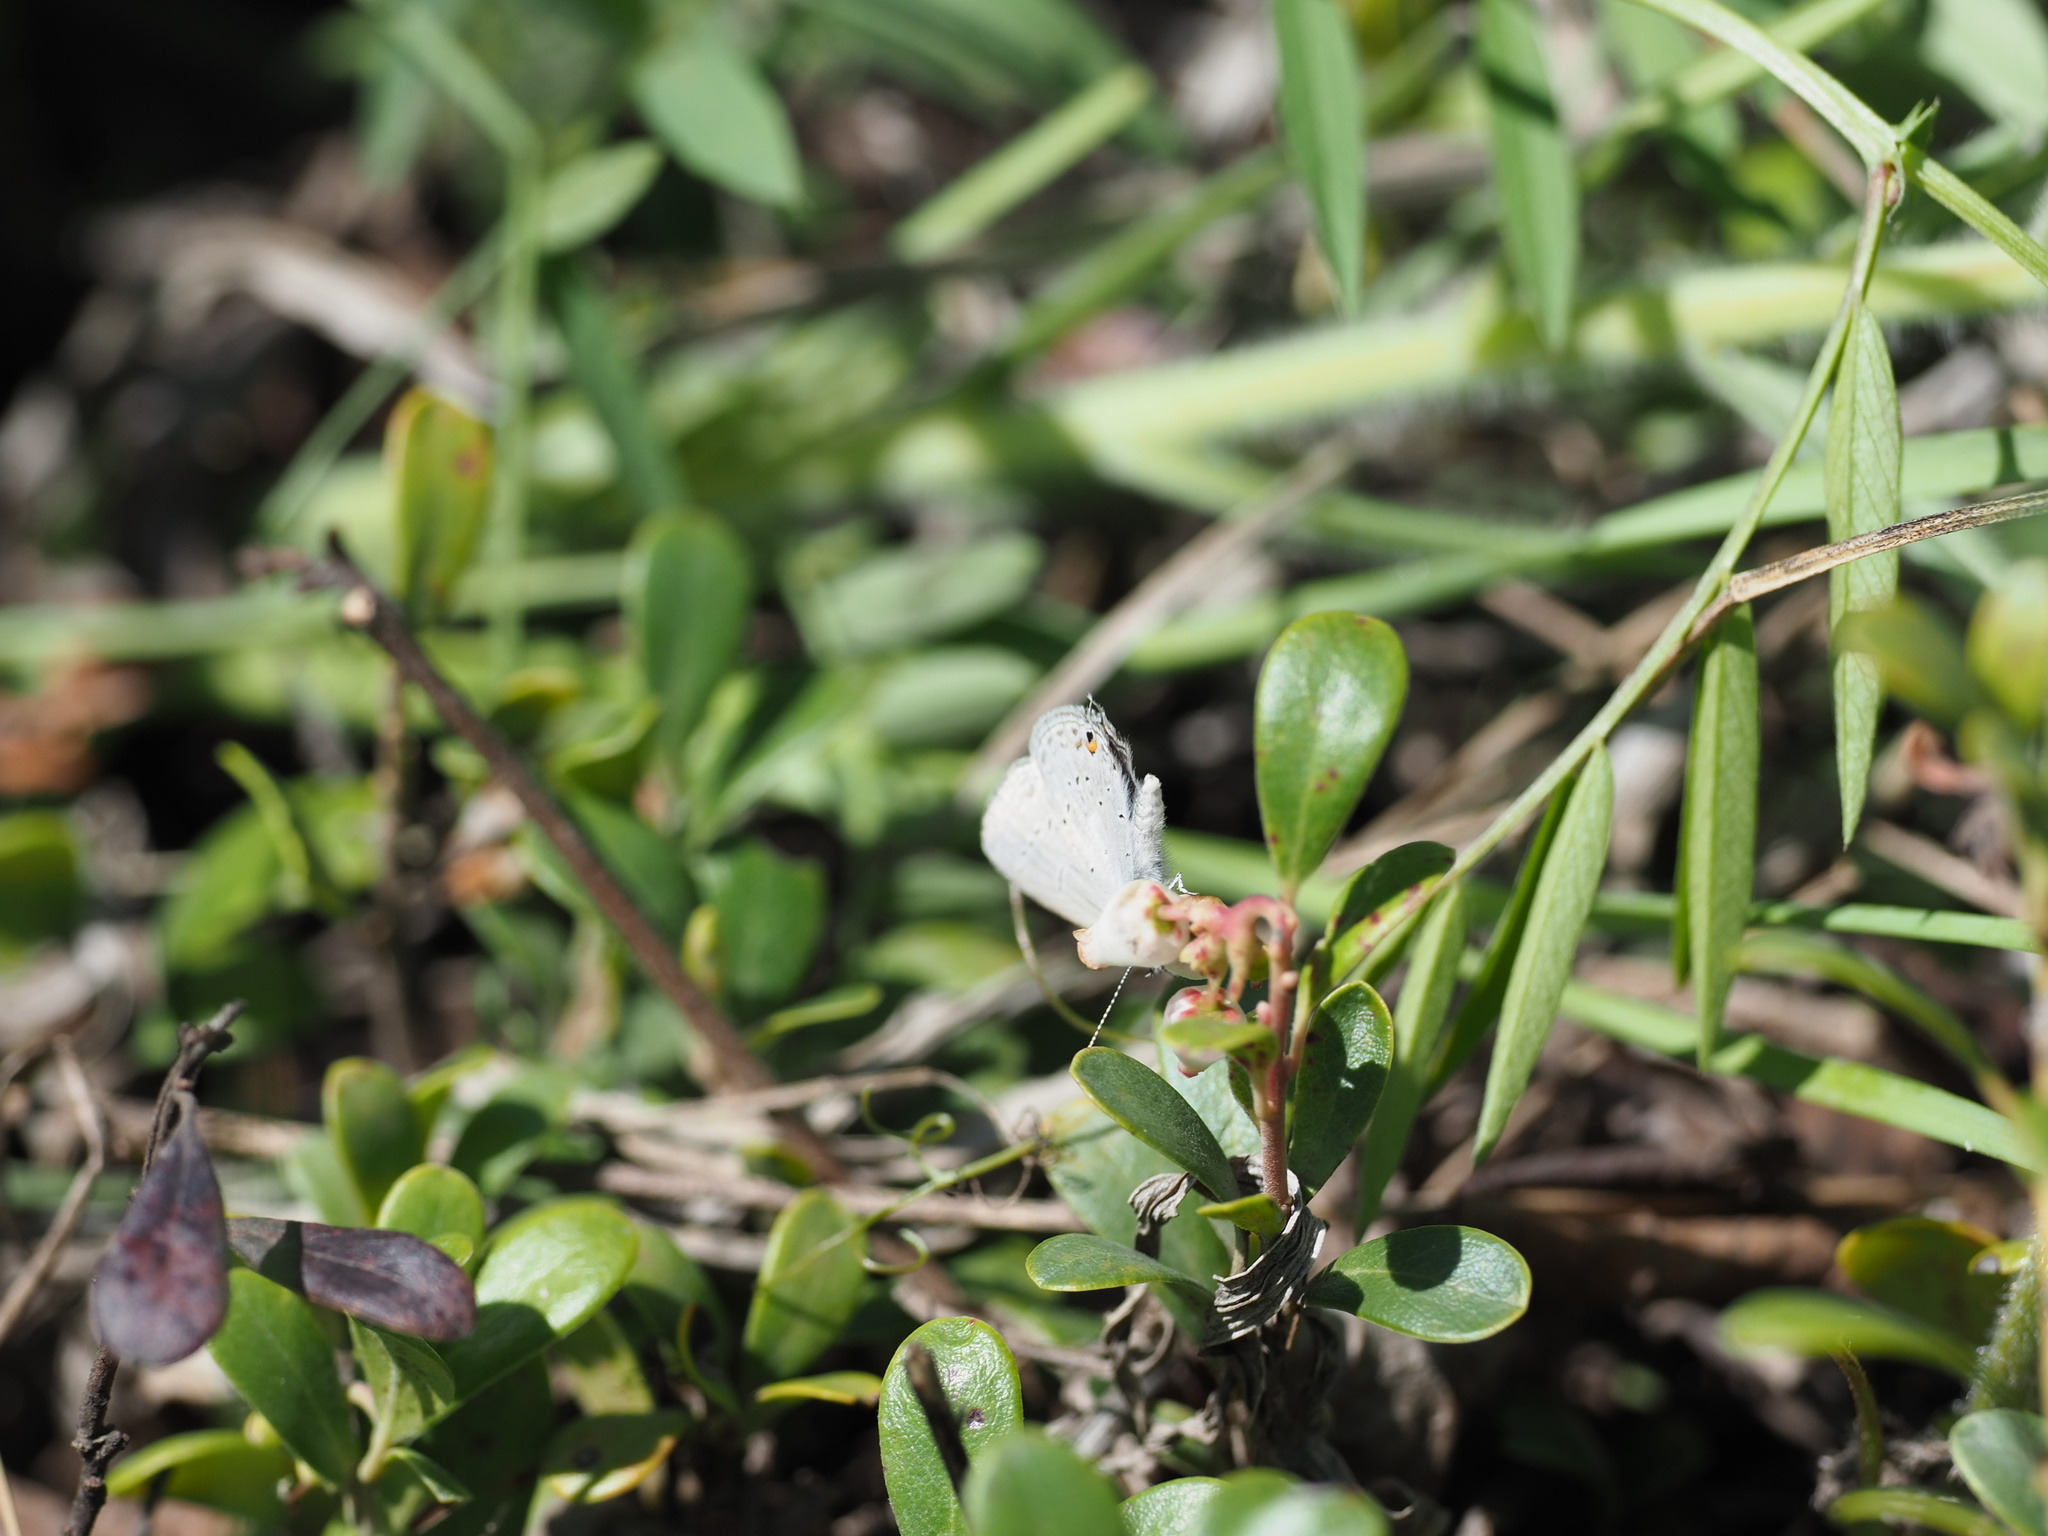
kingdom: Animalia
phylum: Arthropoda
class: Insecta
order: Lepidoptera
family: Lycaenidae
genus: Elkalyce
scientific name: Elkalyce amyntula
